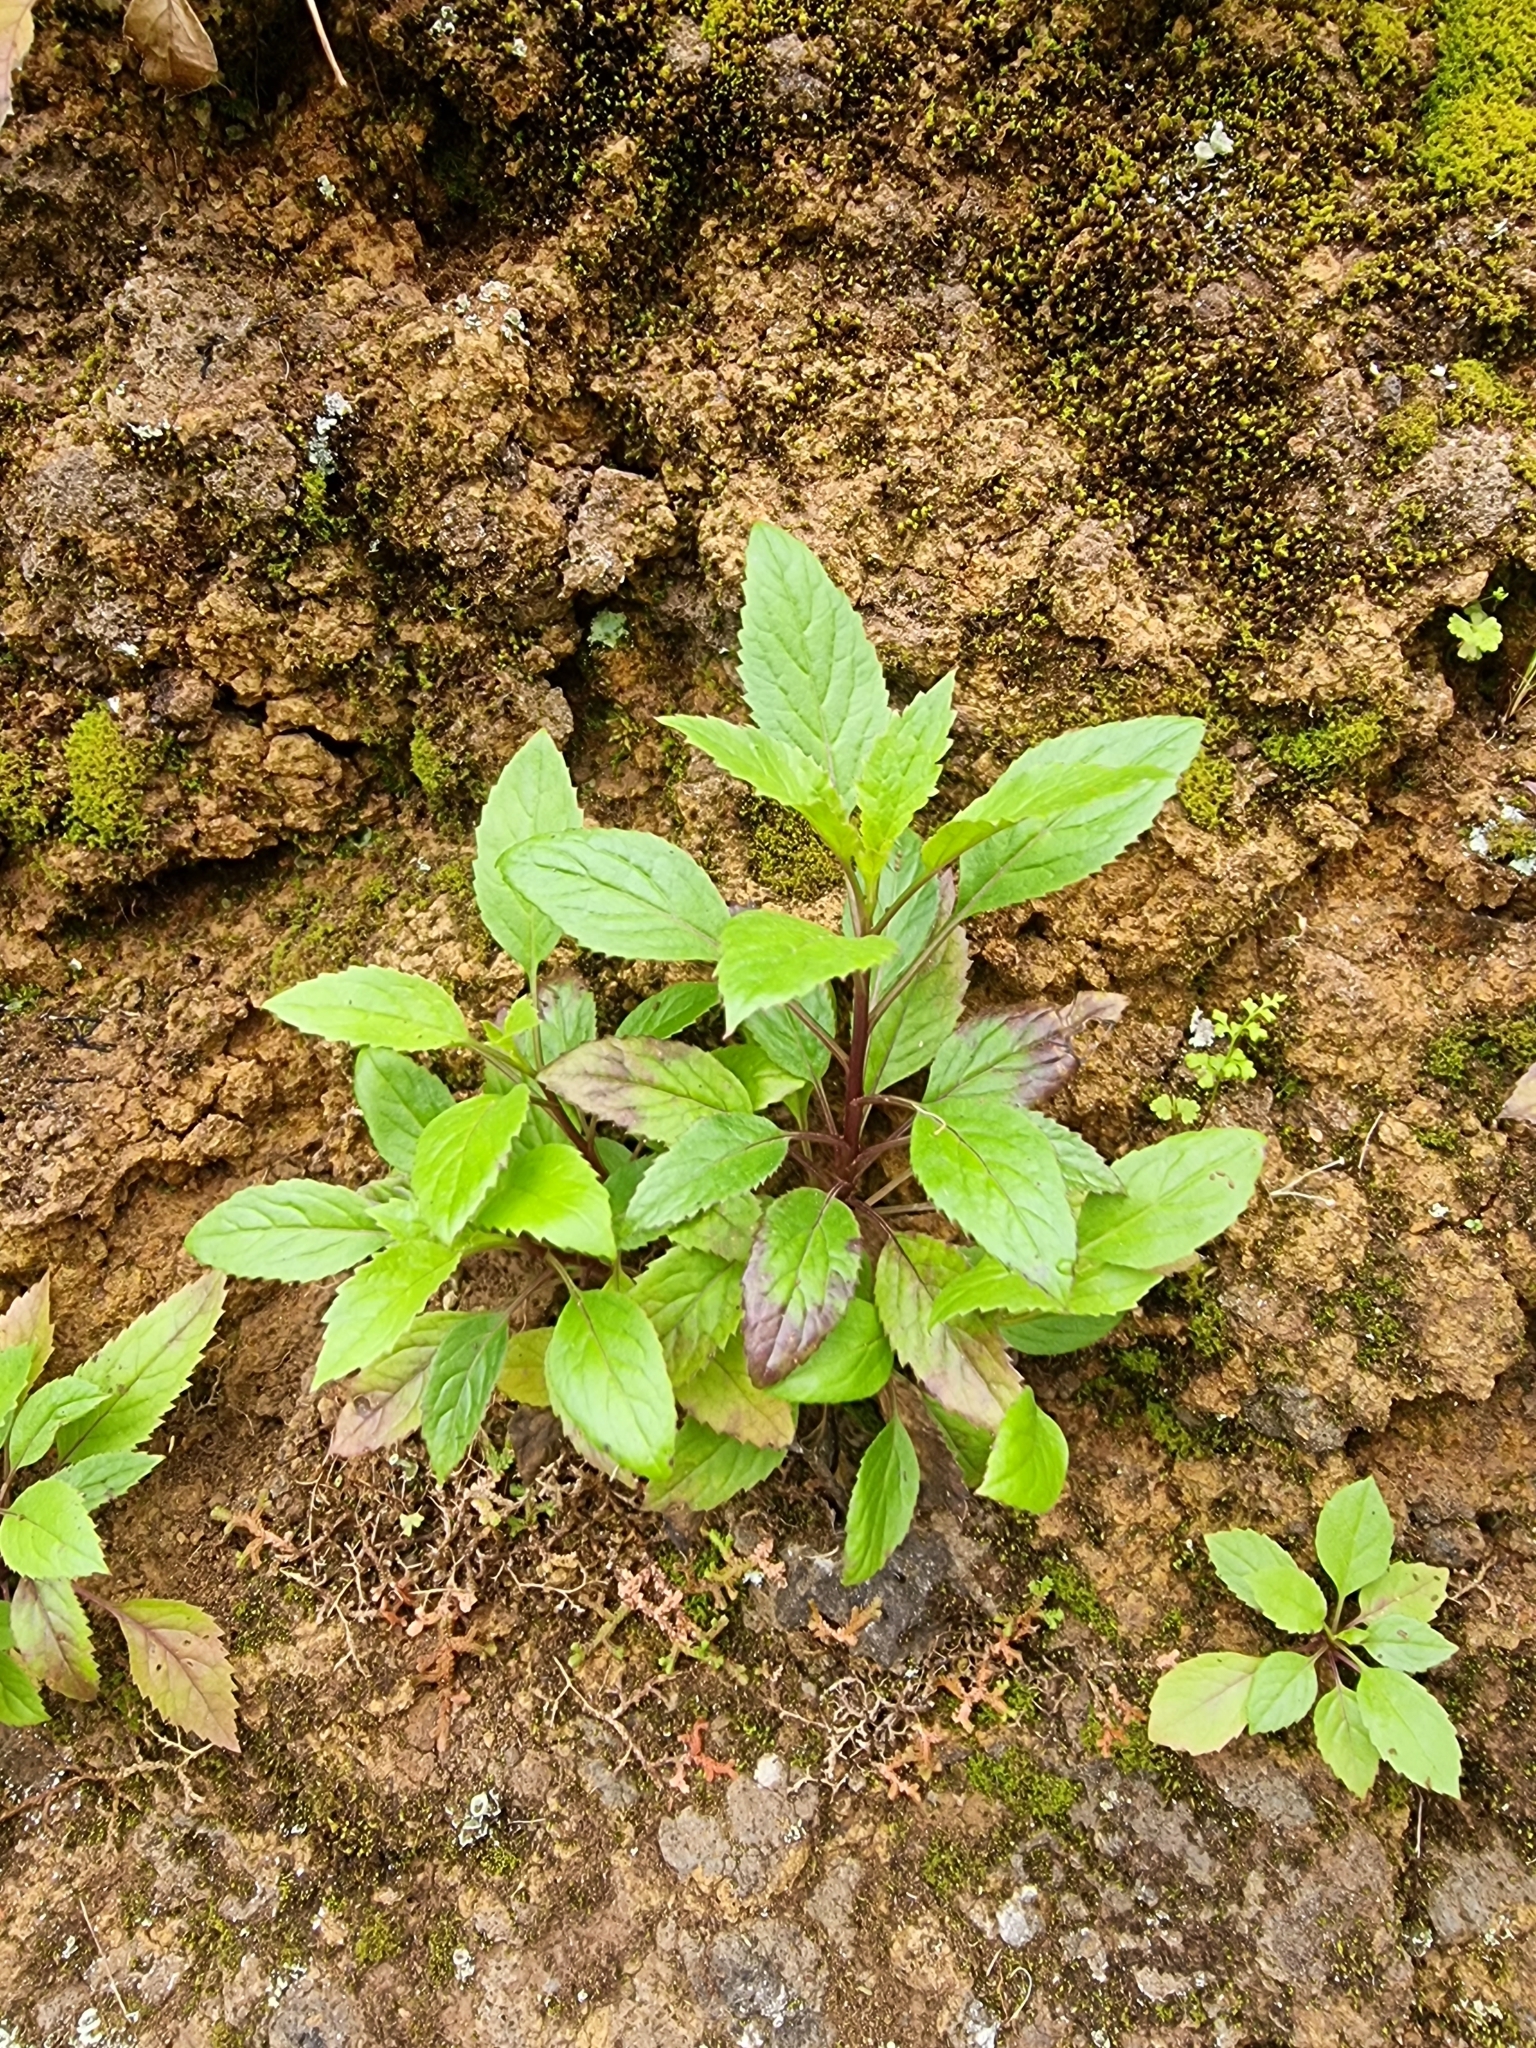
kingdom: Plantae
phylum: Tracheophyta
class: Magnoliopsida
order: Asterales
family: Campanulaceae
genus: Trachelium
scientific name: Trachelium caeruleum
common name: Throatwort
